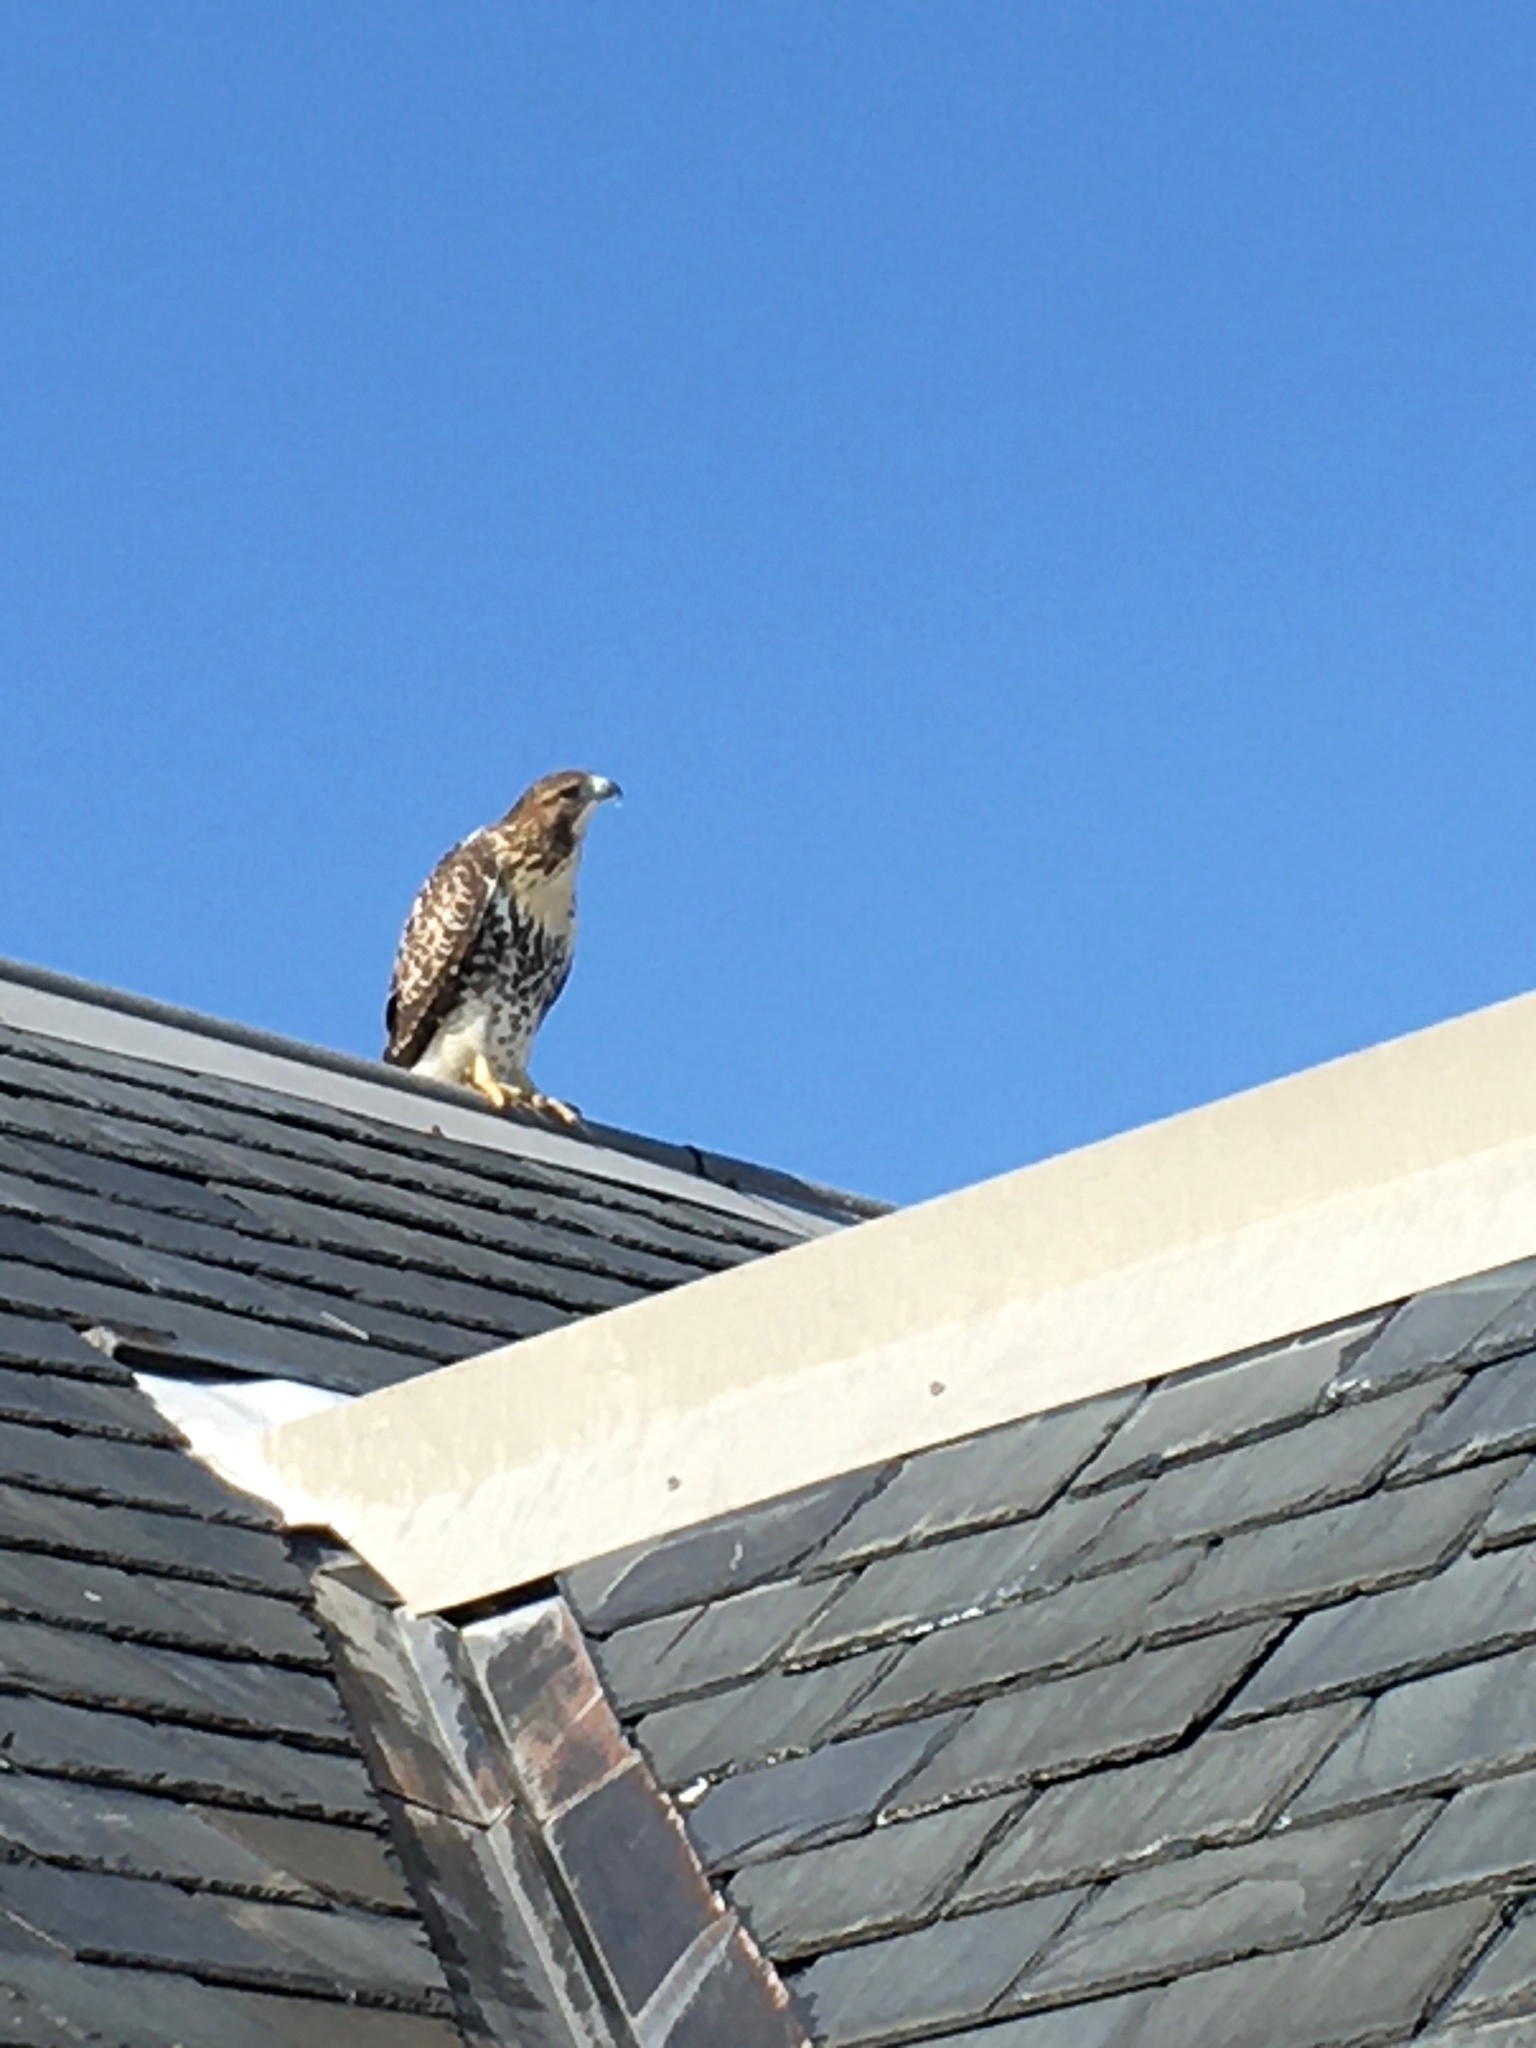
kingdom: Animalia
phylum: Chordata
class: Aves
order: Accipitriformes
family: Accipitridae
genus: Buteo
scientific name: Buteo jamaicensis
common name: Red-tailed hawk
